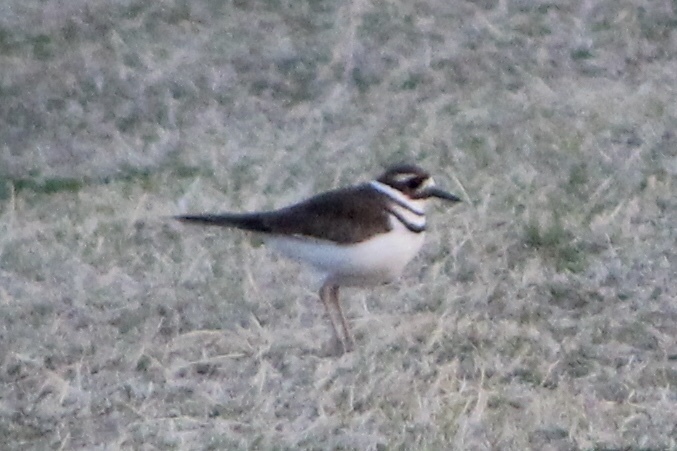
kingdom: Animalia
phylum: Chordata
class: Aves
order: Charadriiformes
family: Charadriidae
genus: Charadrius
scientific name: Charadrius vociferus
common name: Killdeer
